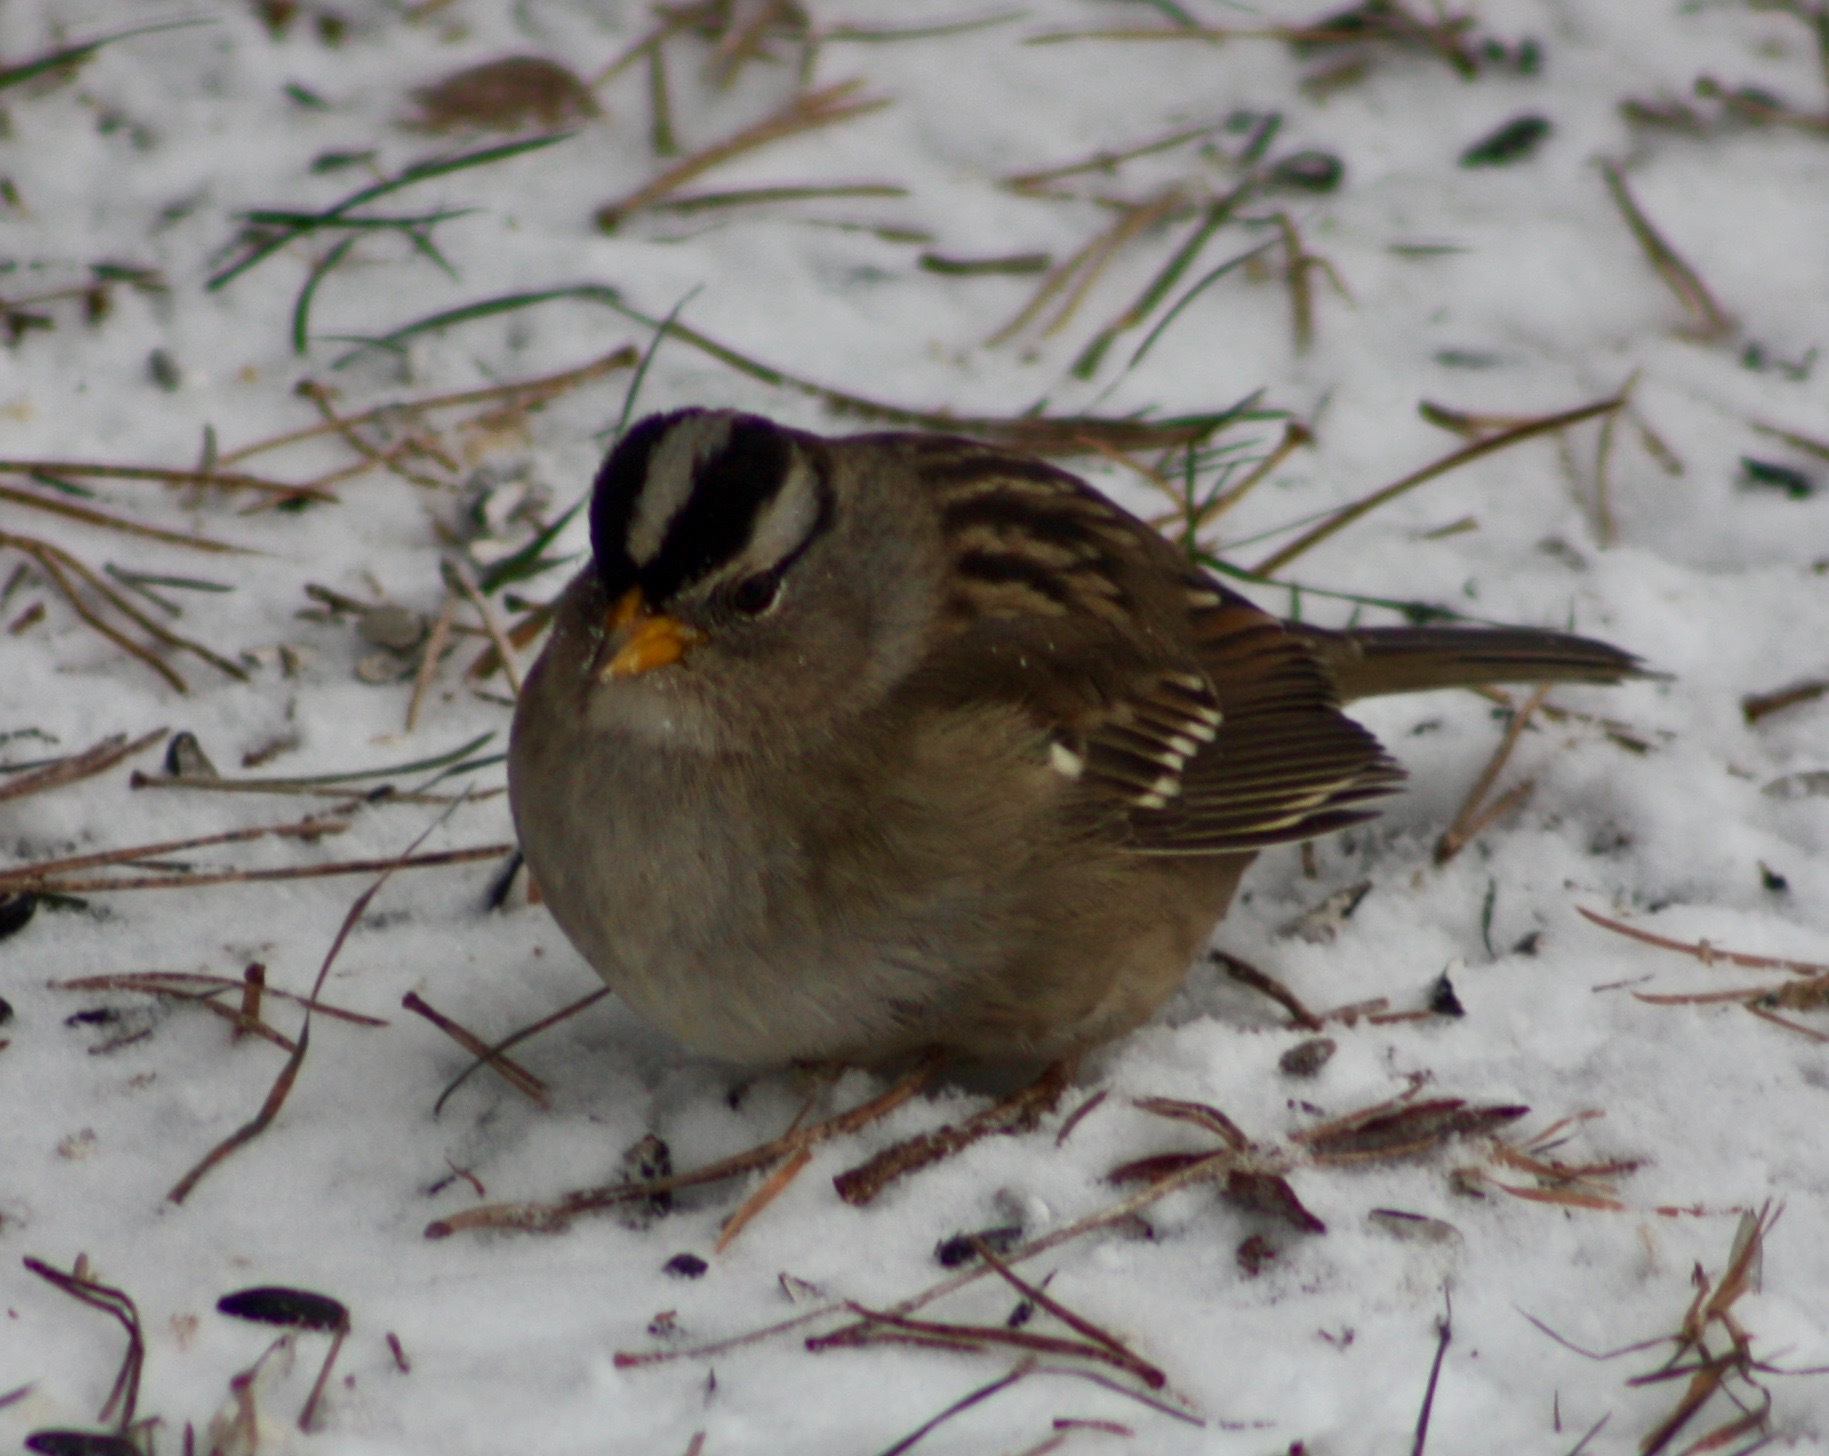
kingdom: Animalia
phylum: Chordata
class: Aves
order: Passeriformes
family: Passerellidae
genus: Zonotrichia
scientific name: Zonotrichia leucophrys
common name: White-crowned sparrow
